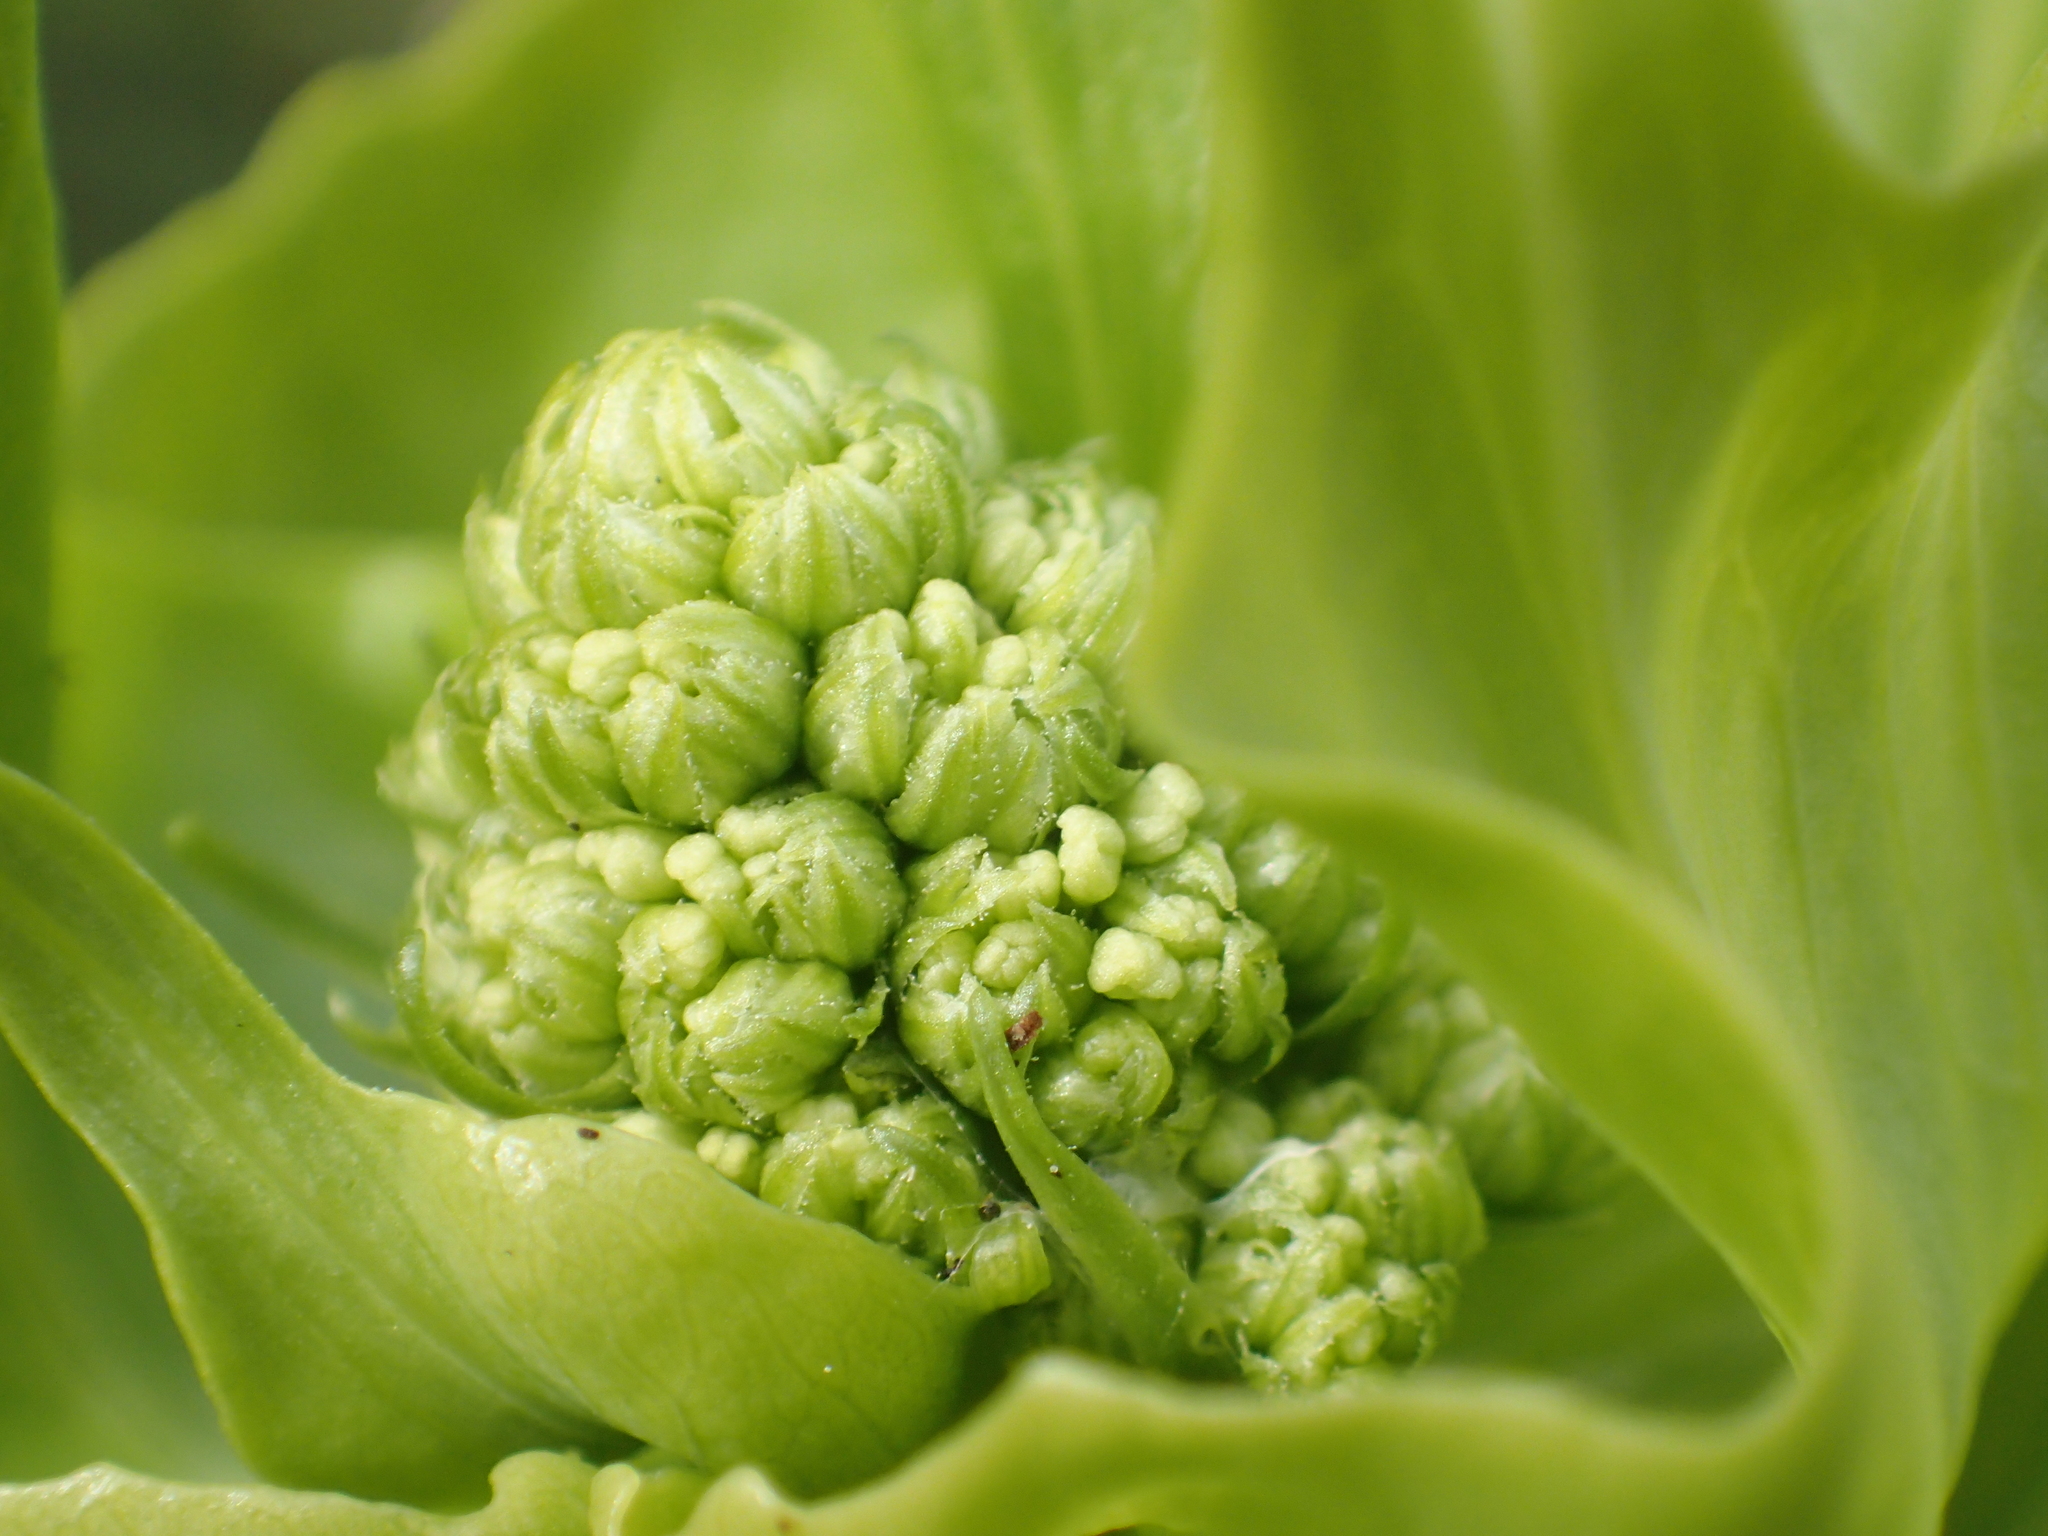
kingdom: Plantae
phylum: Tracheophyta
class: Magnoliopsida
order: Dipsacales
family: Caprifoliaceae
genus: Centranthus
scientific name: Centranthus ruber
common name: Red valerian
